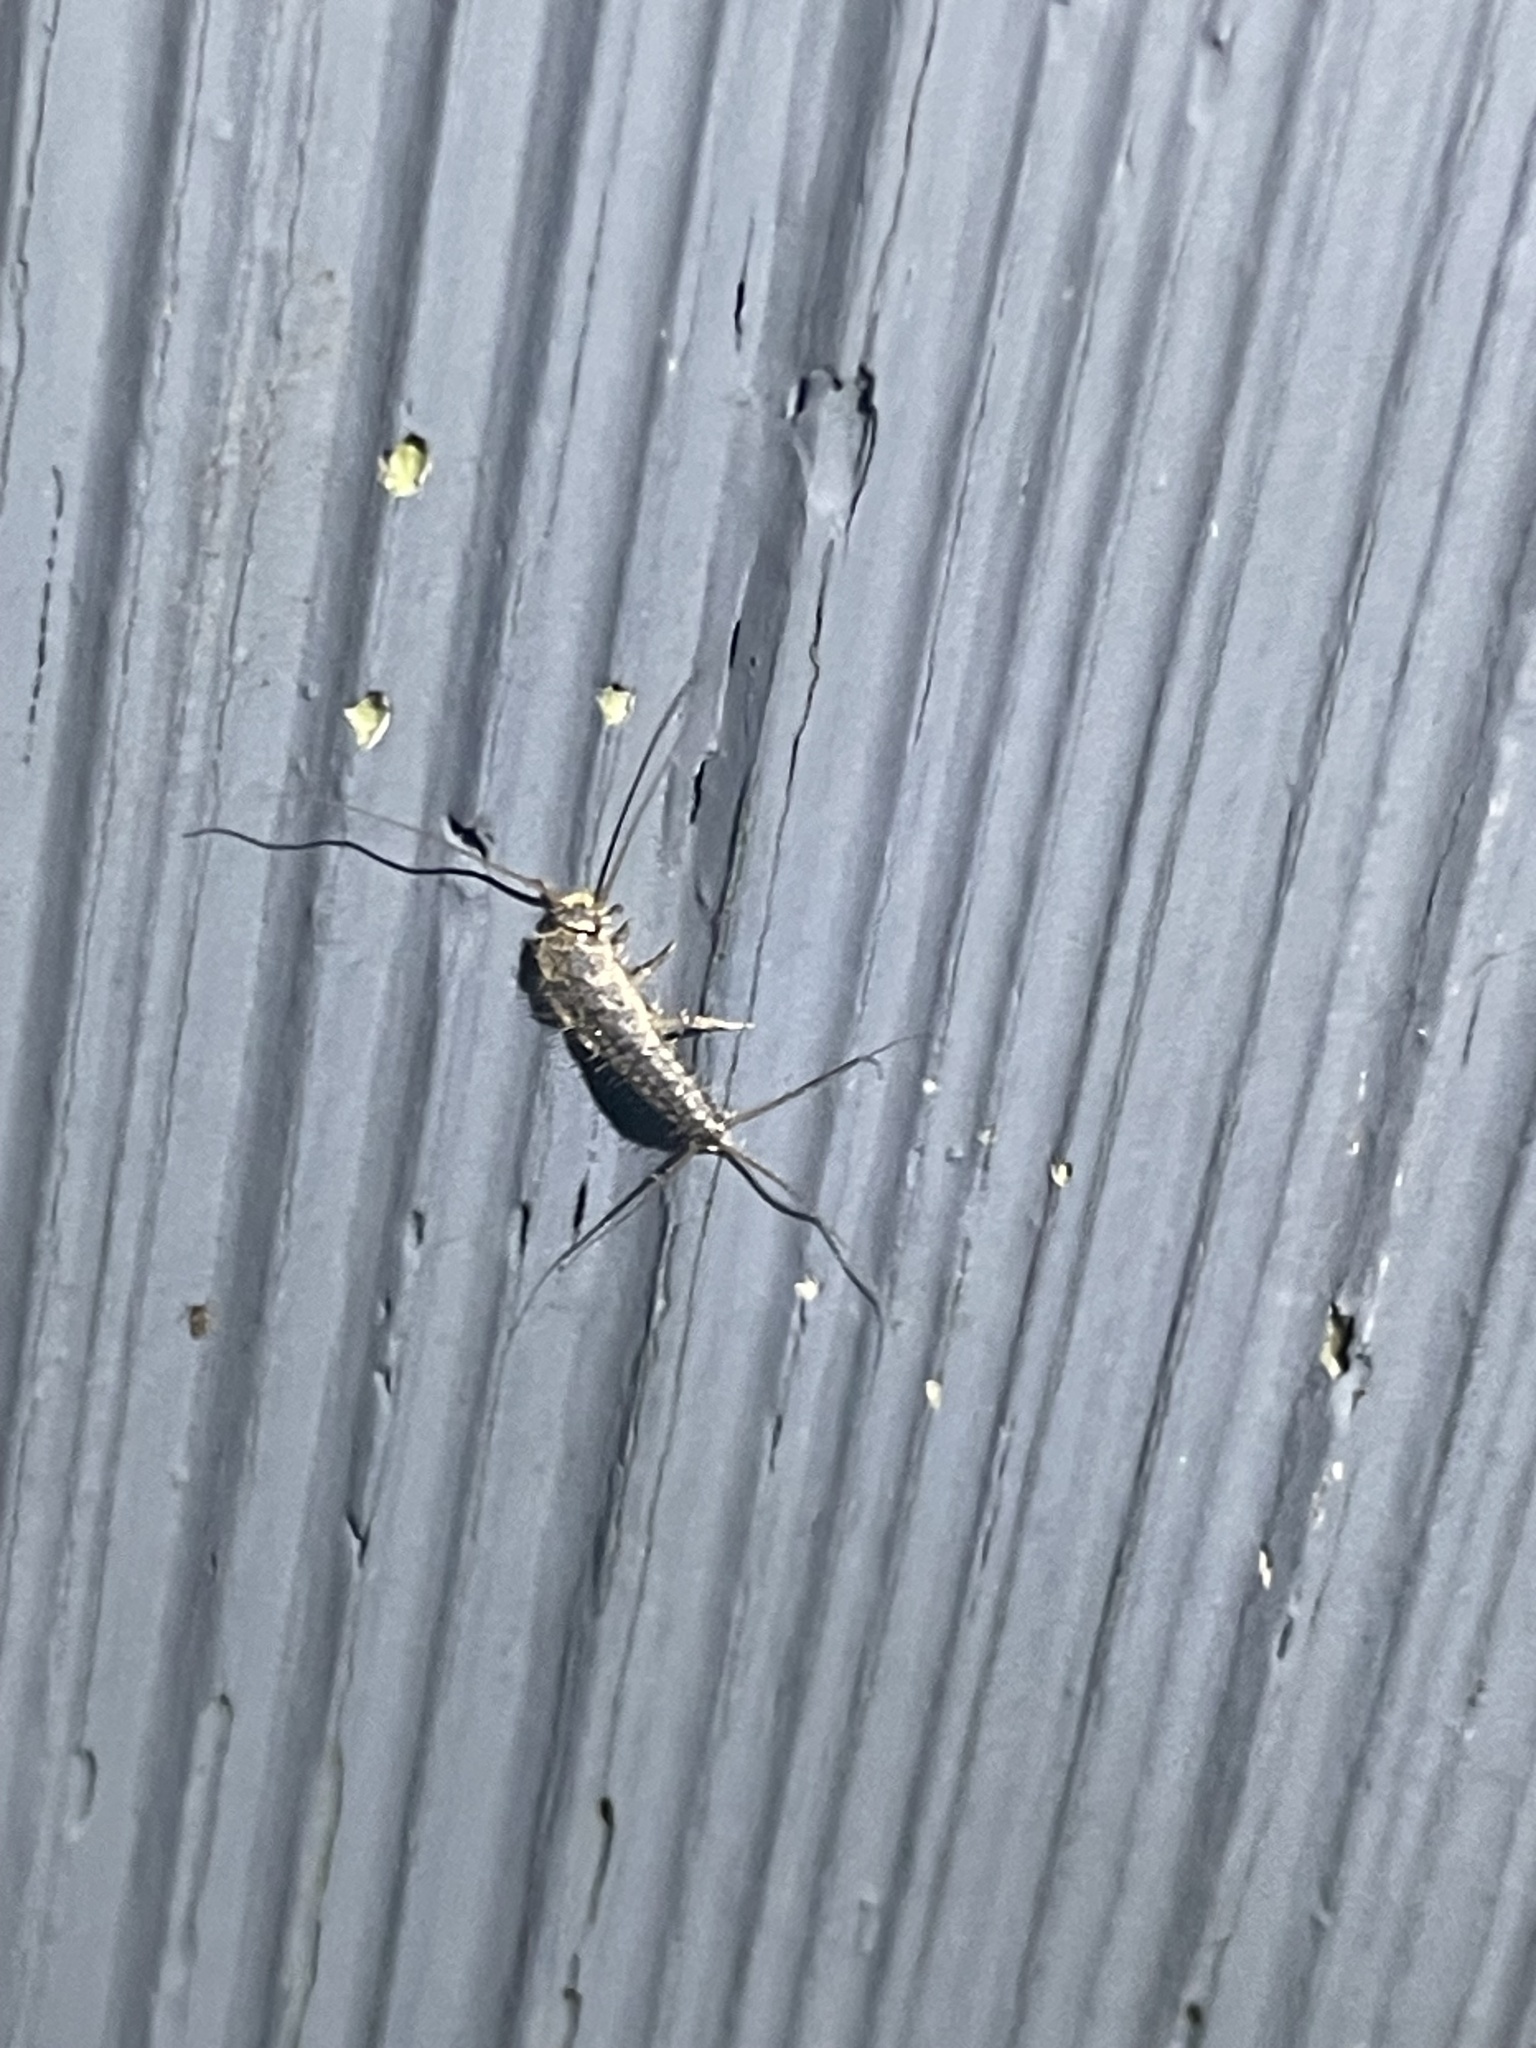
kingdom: Animalia
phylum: Arthropoda
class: Insecta
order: Zygentoma
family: Lepismatidae
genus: Ctenolepisma
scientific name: Ctenolepisma lineata
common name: Four-lined silverfish
